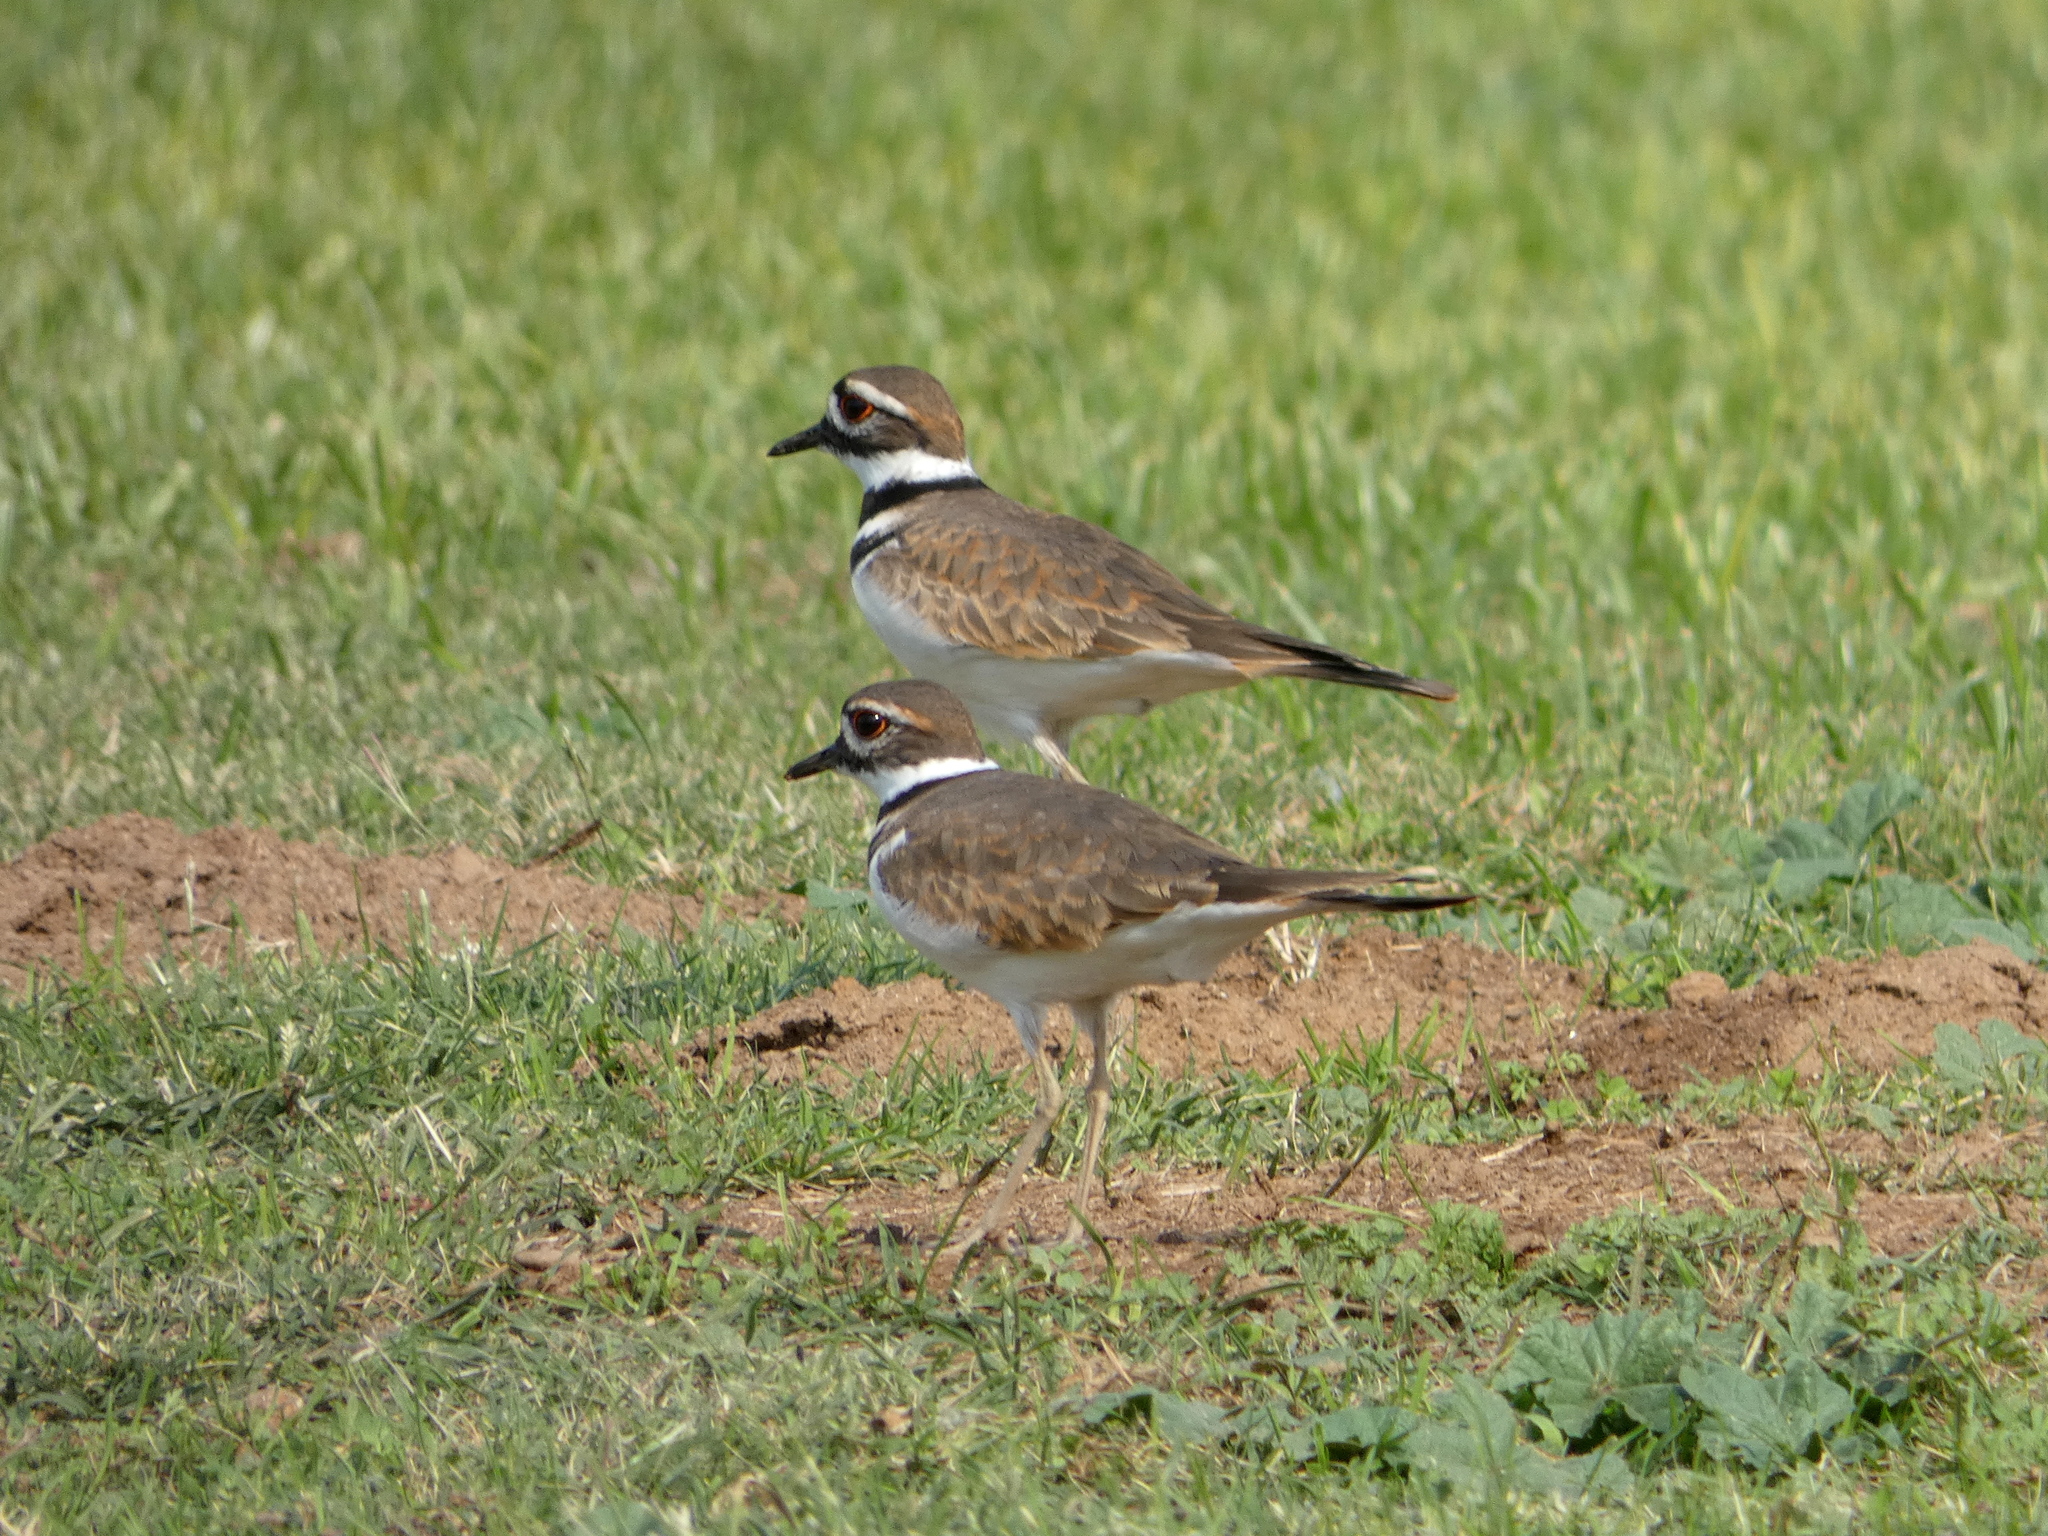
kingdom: Animalia
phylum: Chordata
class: Aves
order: Charadriiformes
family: Charadriidae
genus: Charadrius
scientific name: Charadrius vociferus
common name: Killdeer
